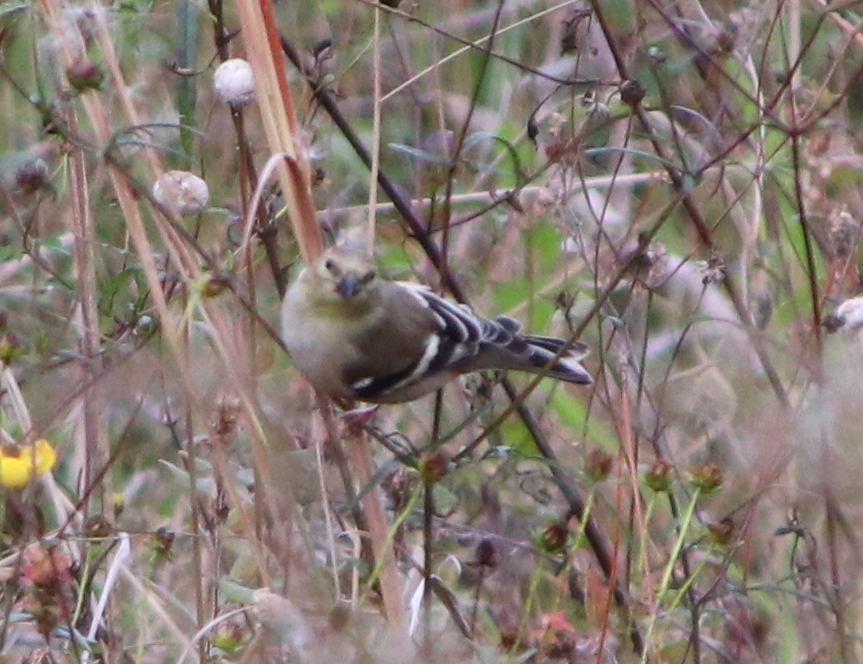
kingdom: Animalia
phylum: Chordata
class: Aves
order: Passeriformes
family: Fringillidae
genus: Spinus
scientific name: Spinus tristis
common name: American goldfinch
